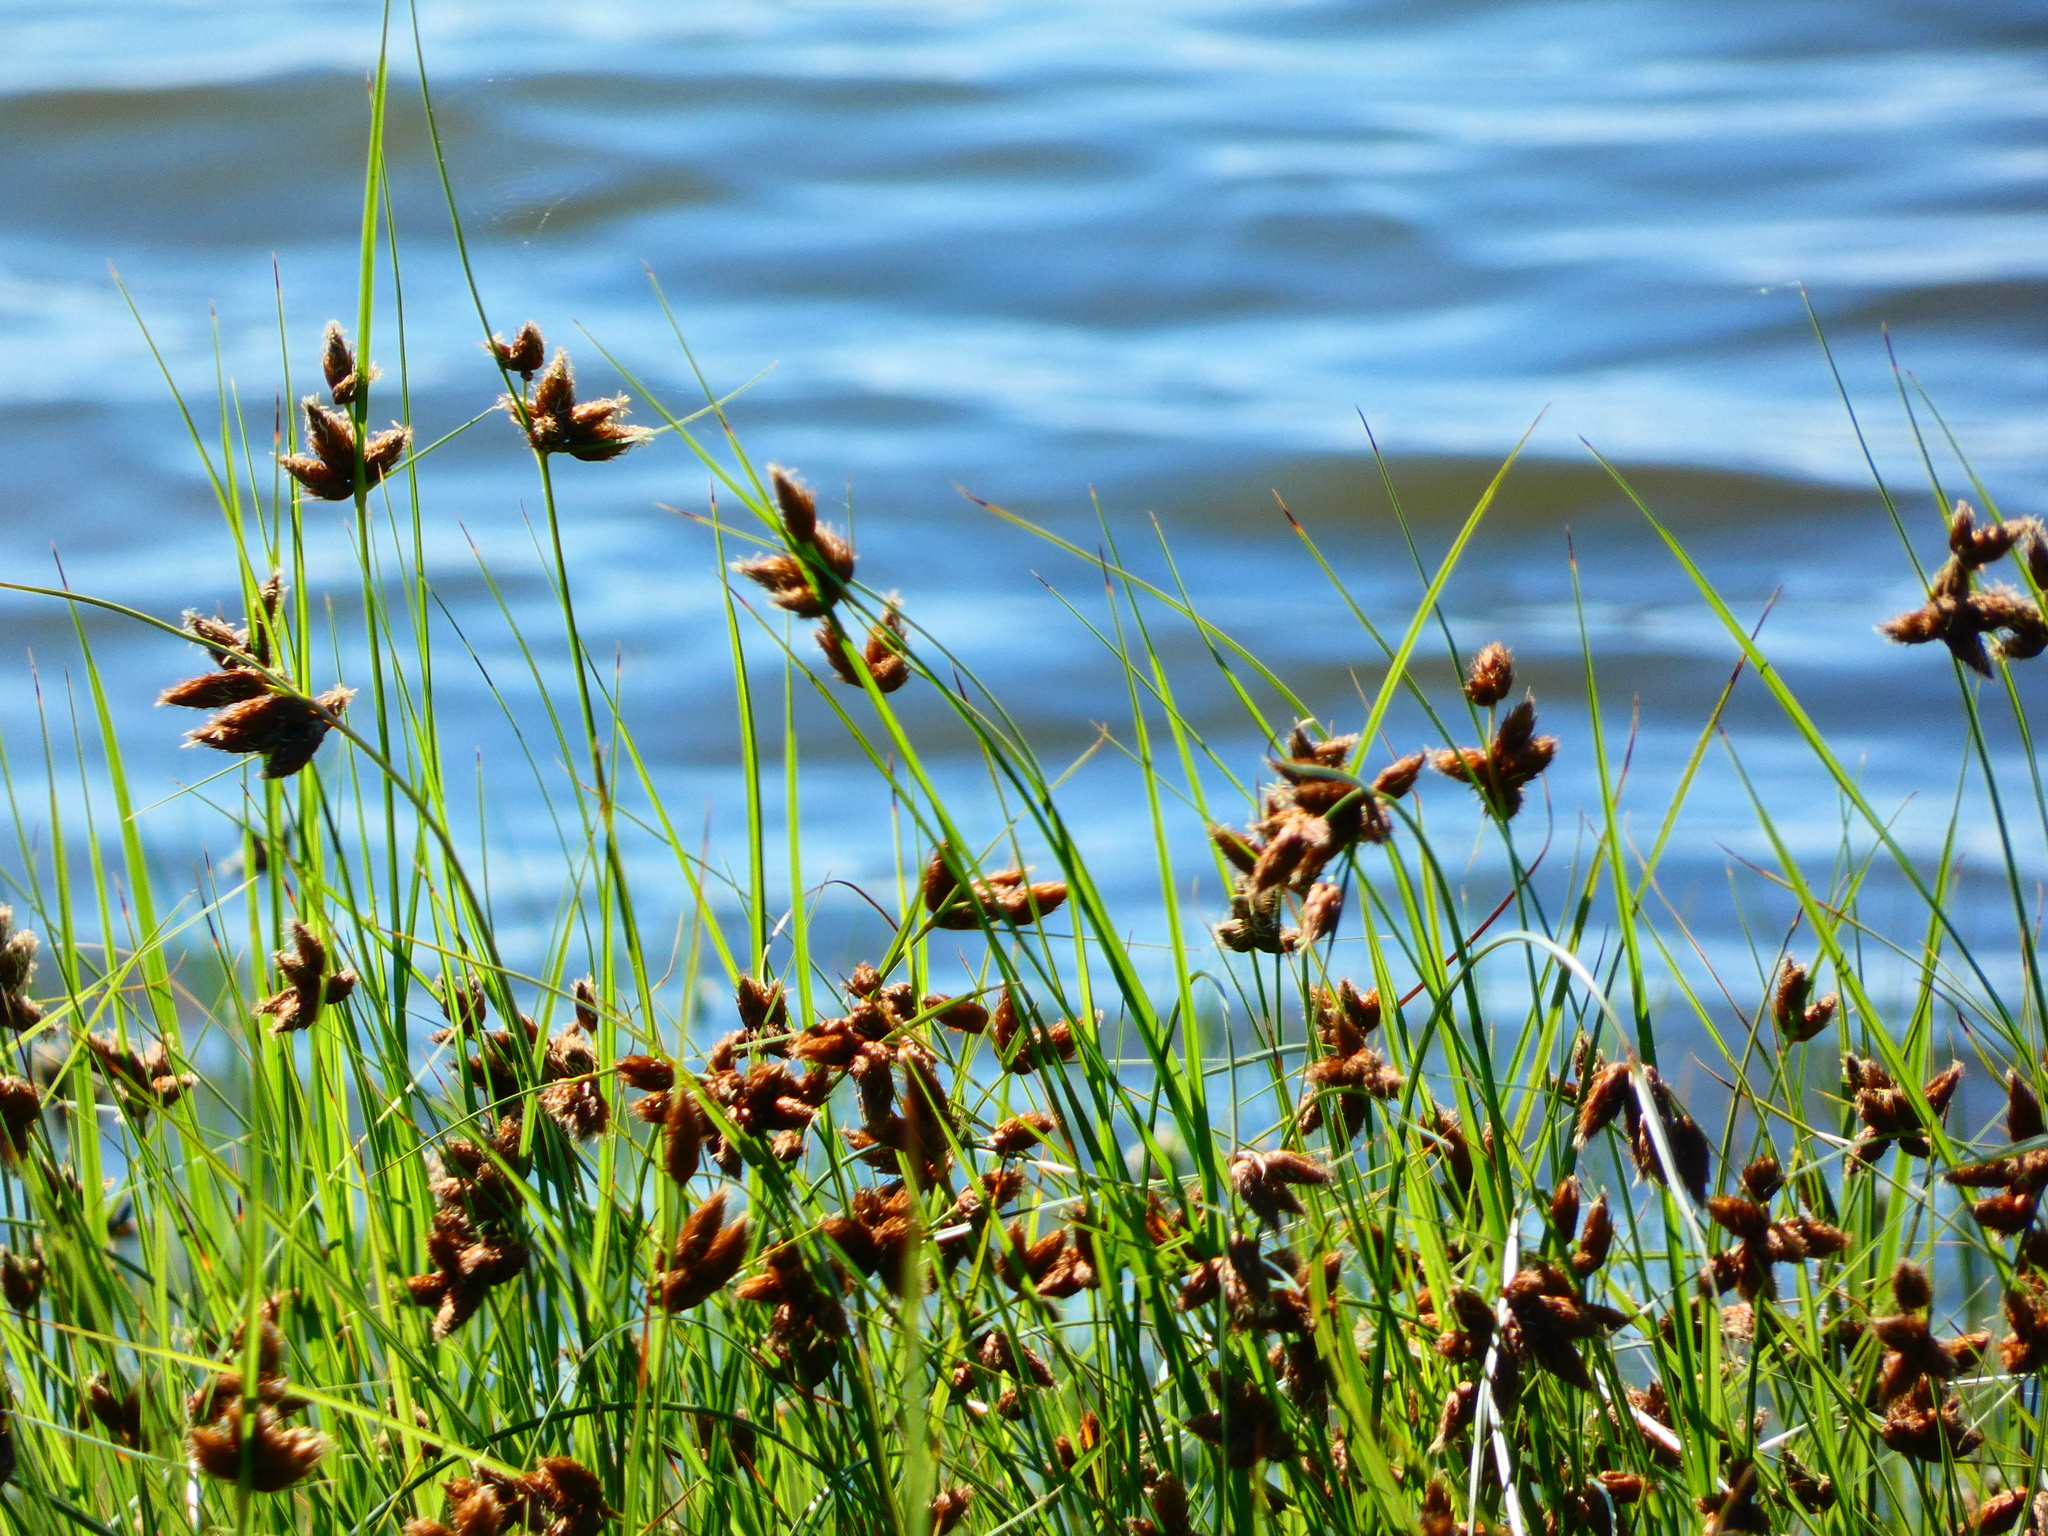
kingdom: Plantae
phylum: Tracheophyta
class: Liliopsida
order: Poales
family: Cyperaceae
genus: Bolboschoenus
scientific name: Bolboschoenus maritimus
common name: Sea club-rush
